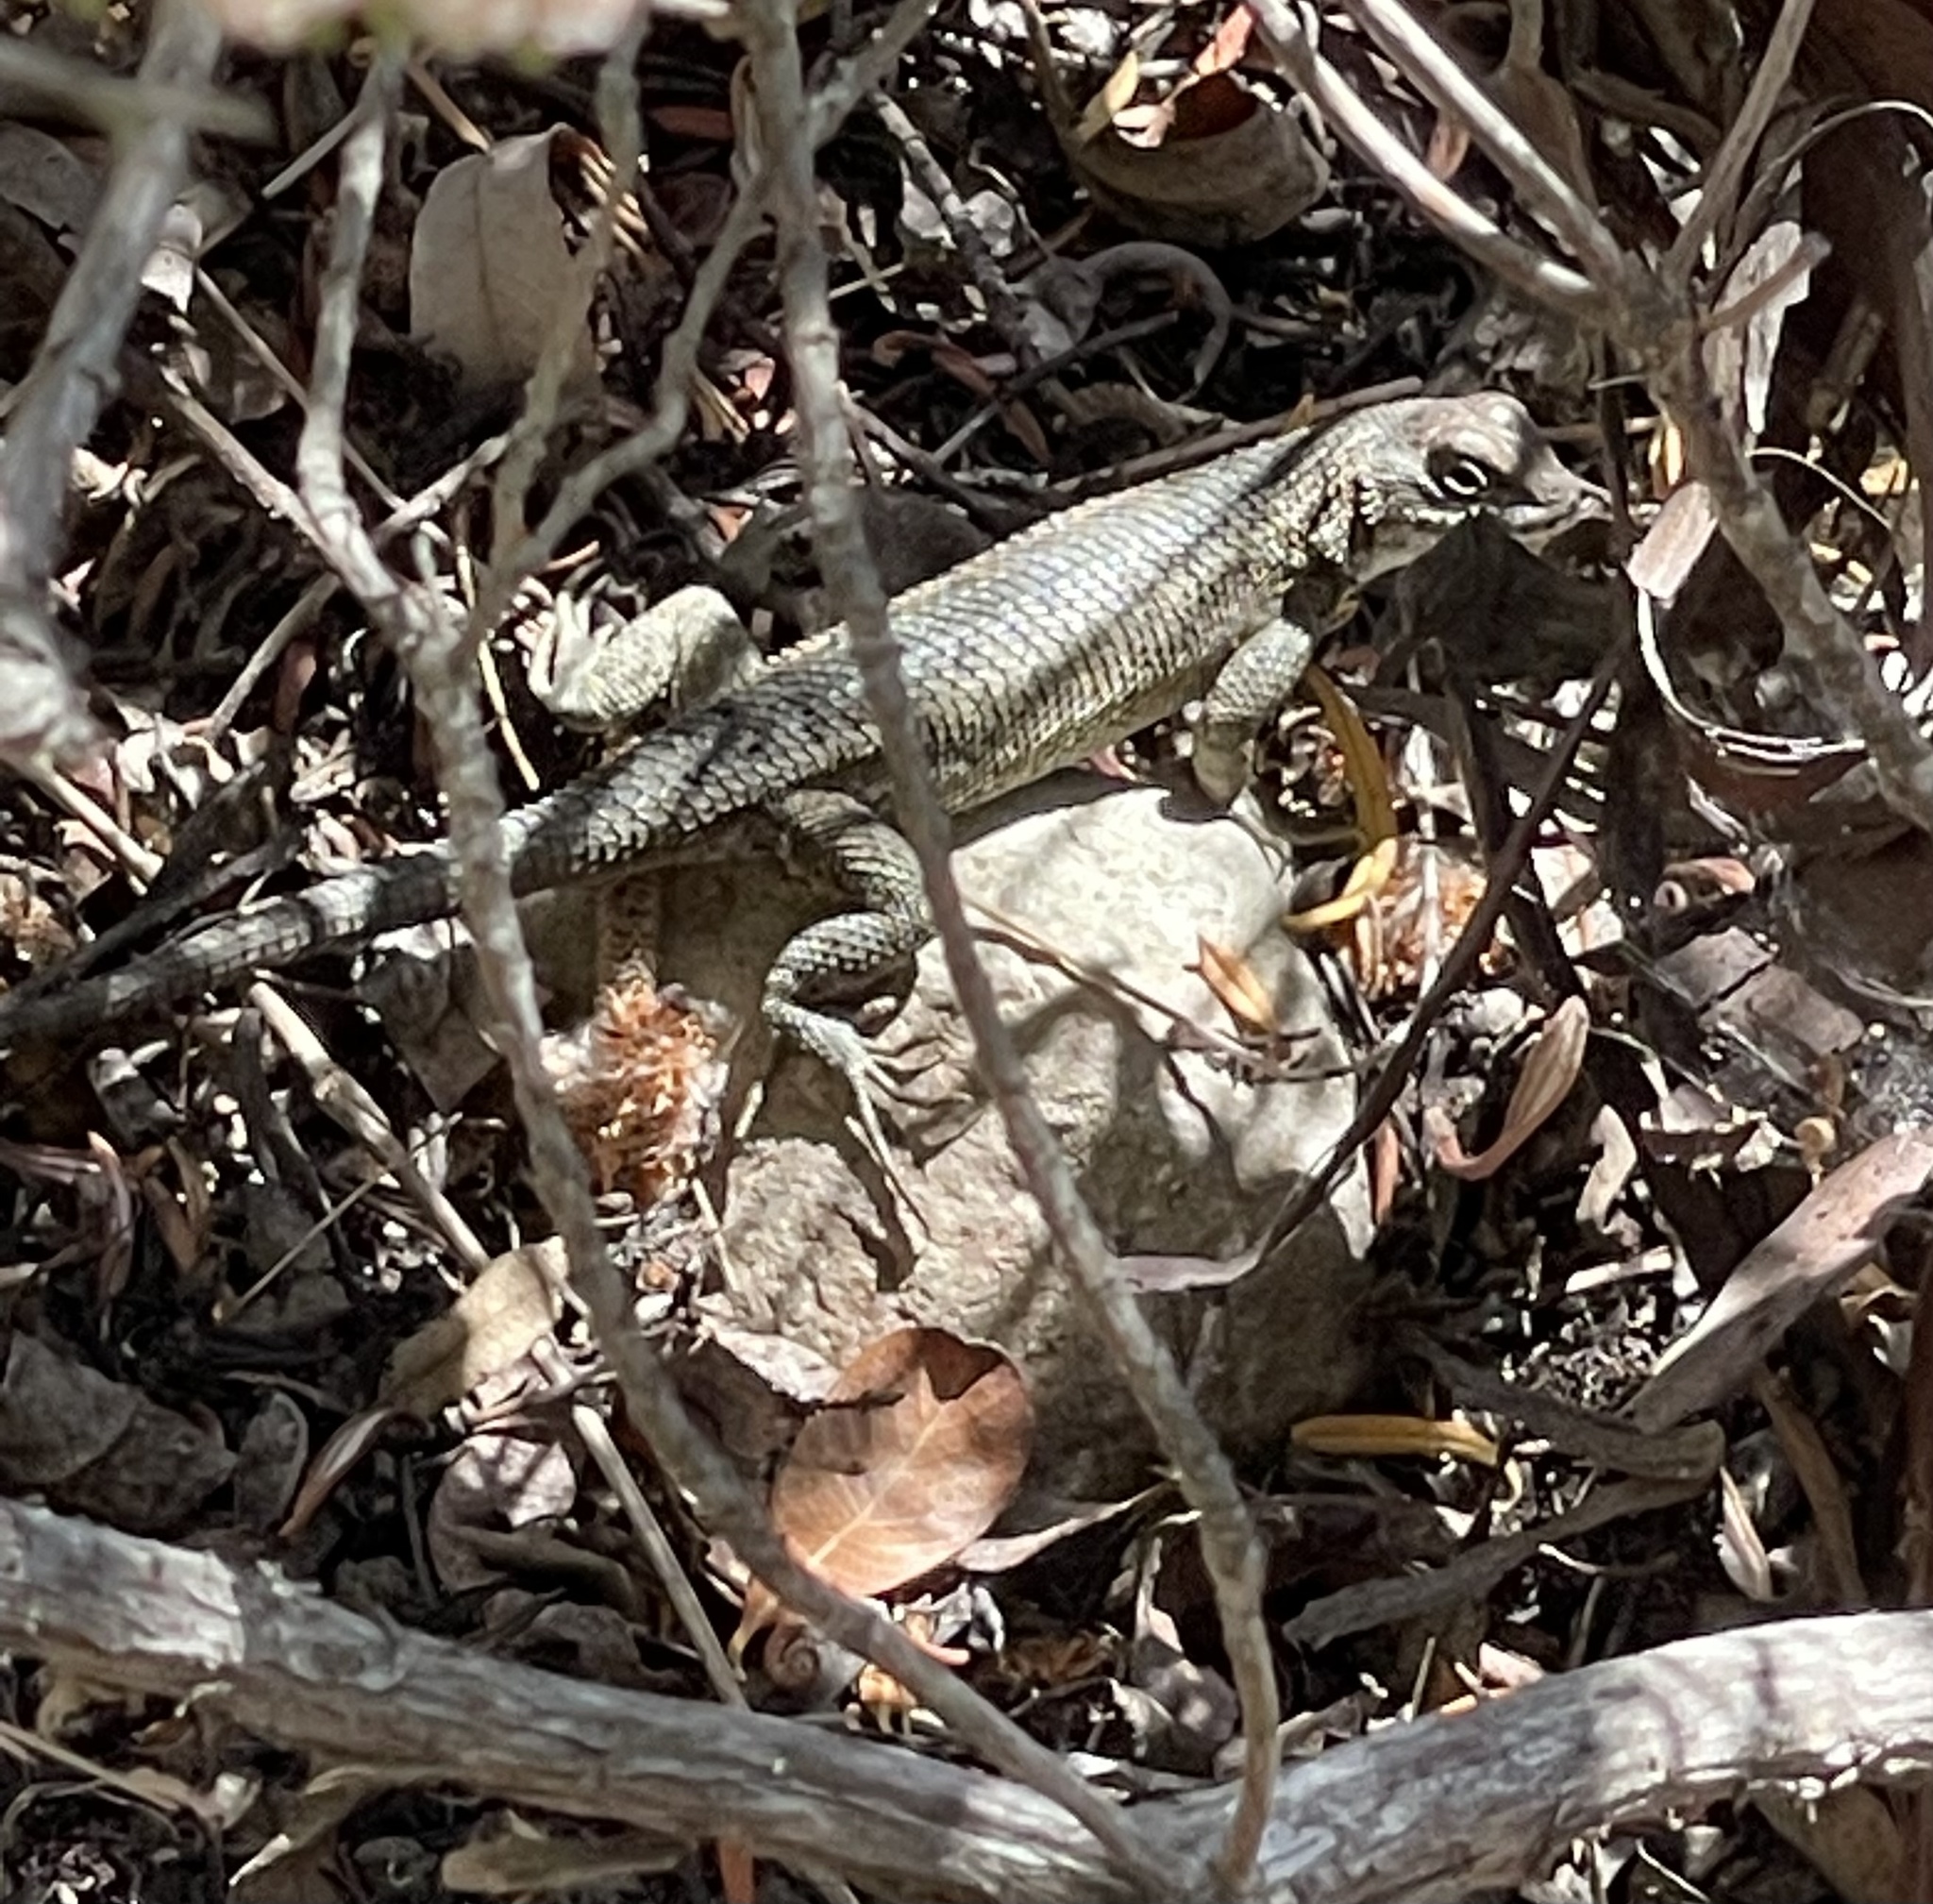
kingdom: Animalia
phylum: Chordata
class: Squamata
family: Phrynosomatidae
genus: Sceloporus
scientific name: Sceloporus occidentalis
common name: Western fence lizard
